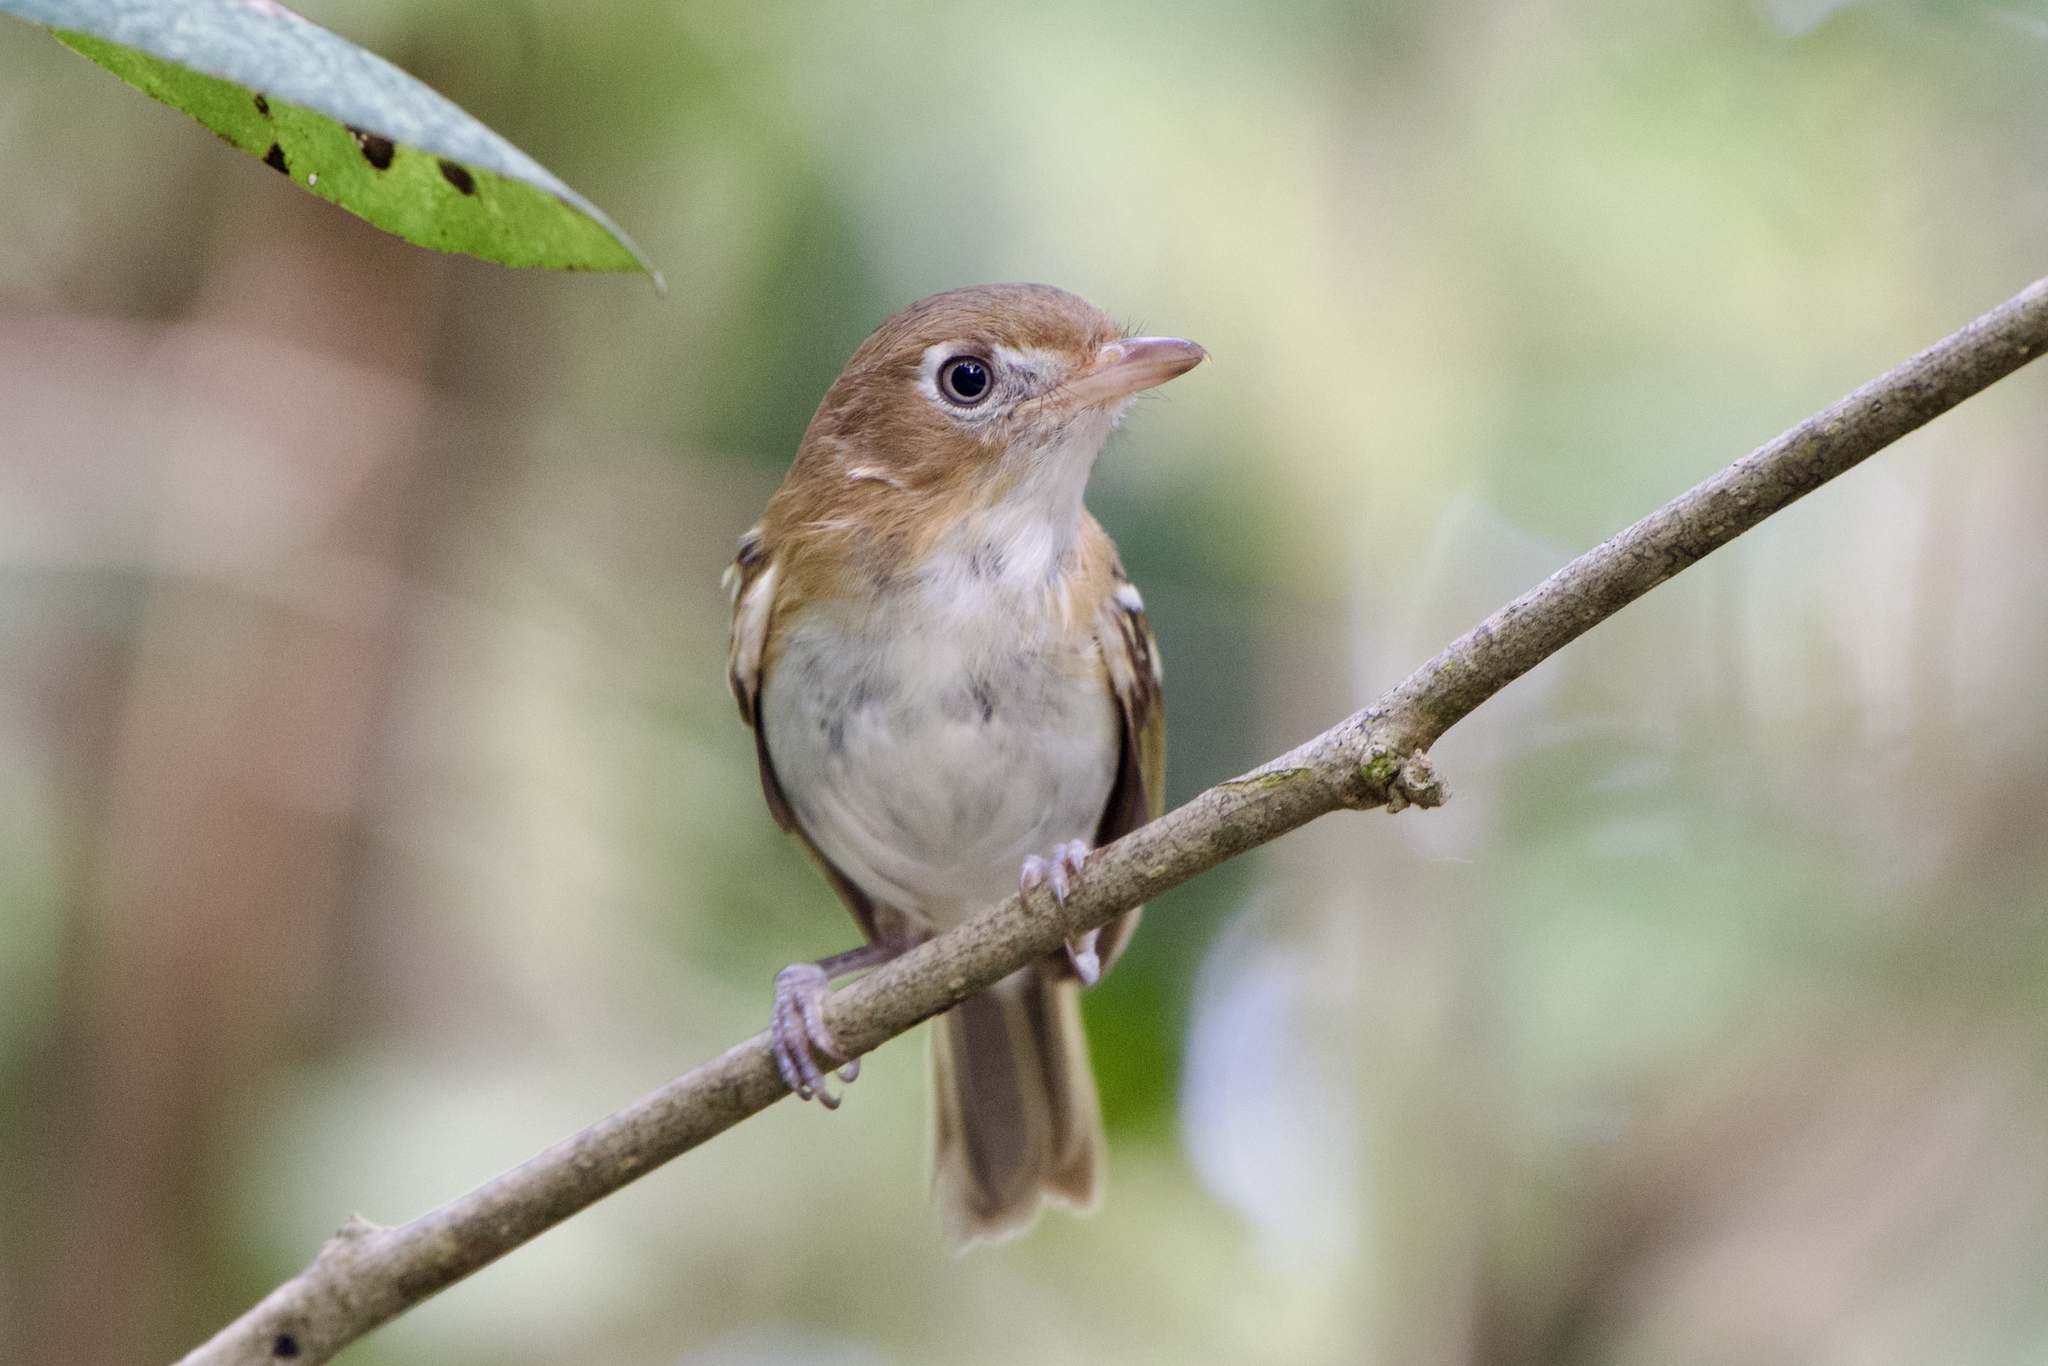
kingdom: Animalia
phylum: Chordata
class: Aves
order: Passeriformes
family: Vireonidae
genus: Vireo
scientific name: Vireo bairdi
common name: Cozumel vireo
